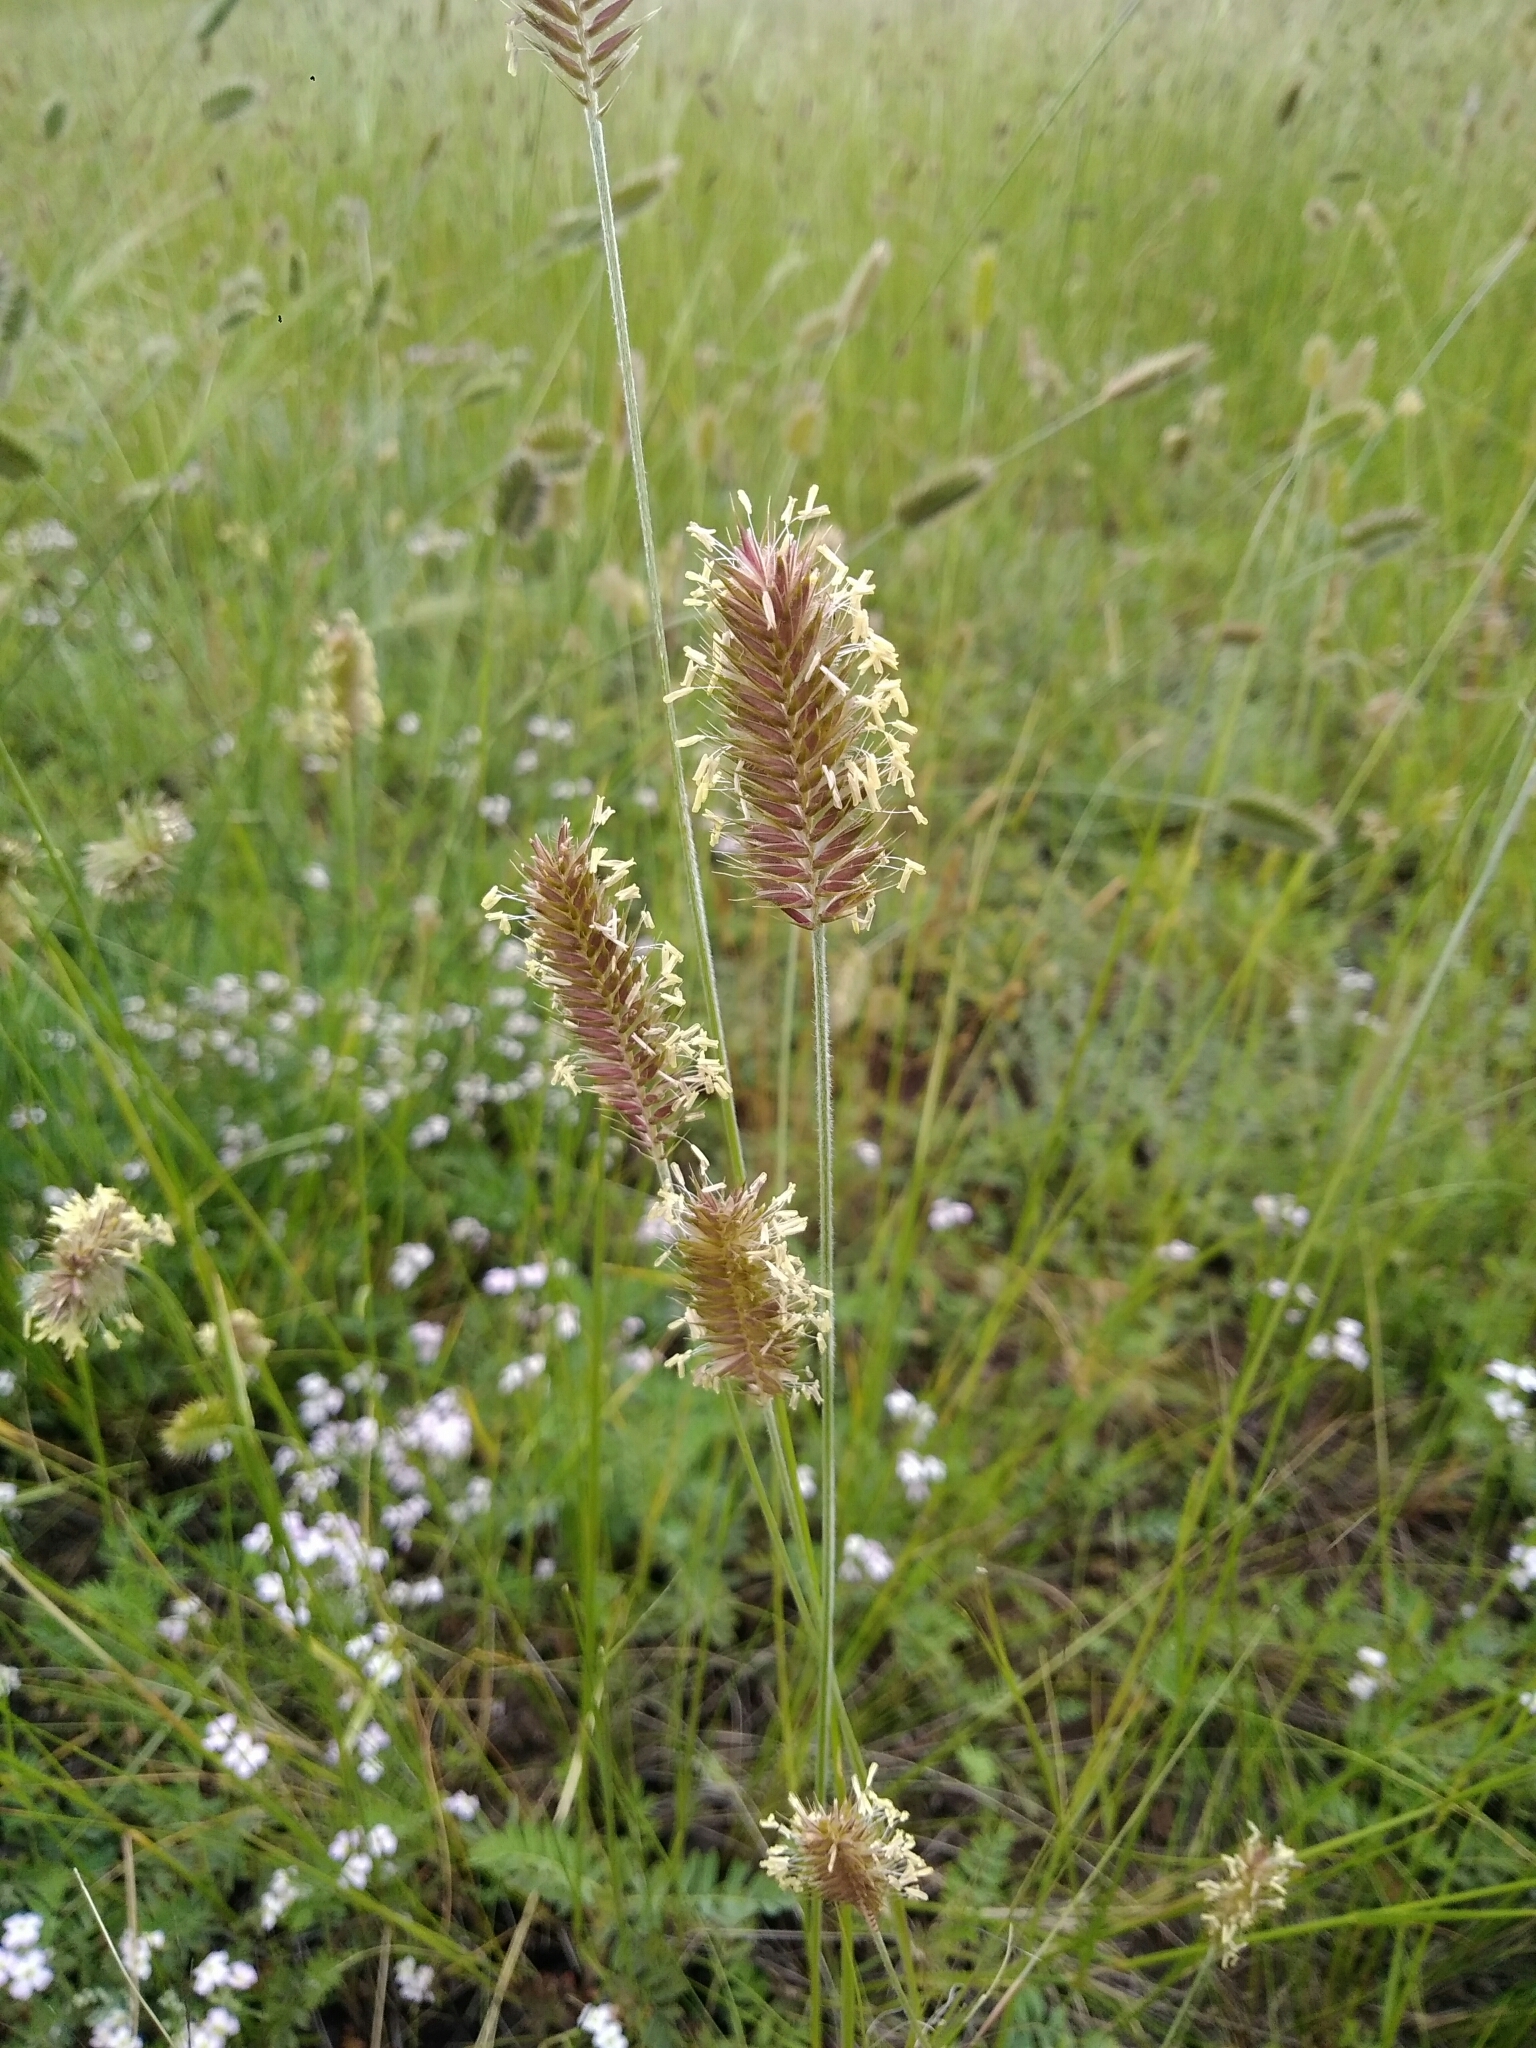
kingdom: Plantae
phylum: Tracheophyta
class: Liliopsida
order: Poales
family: Poaceae
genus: Agropyron
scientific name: Agropyron cristatum
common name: Crested wheatgrass
